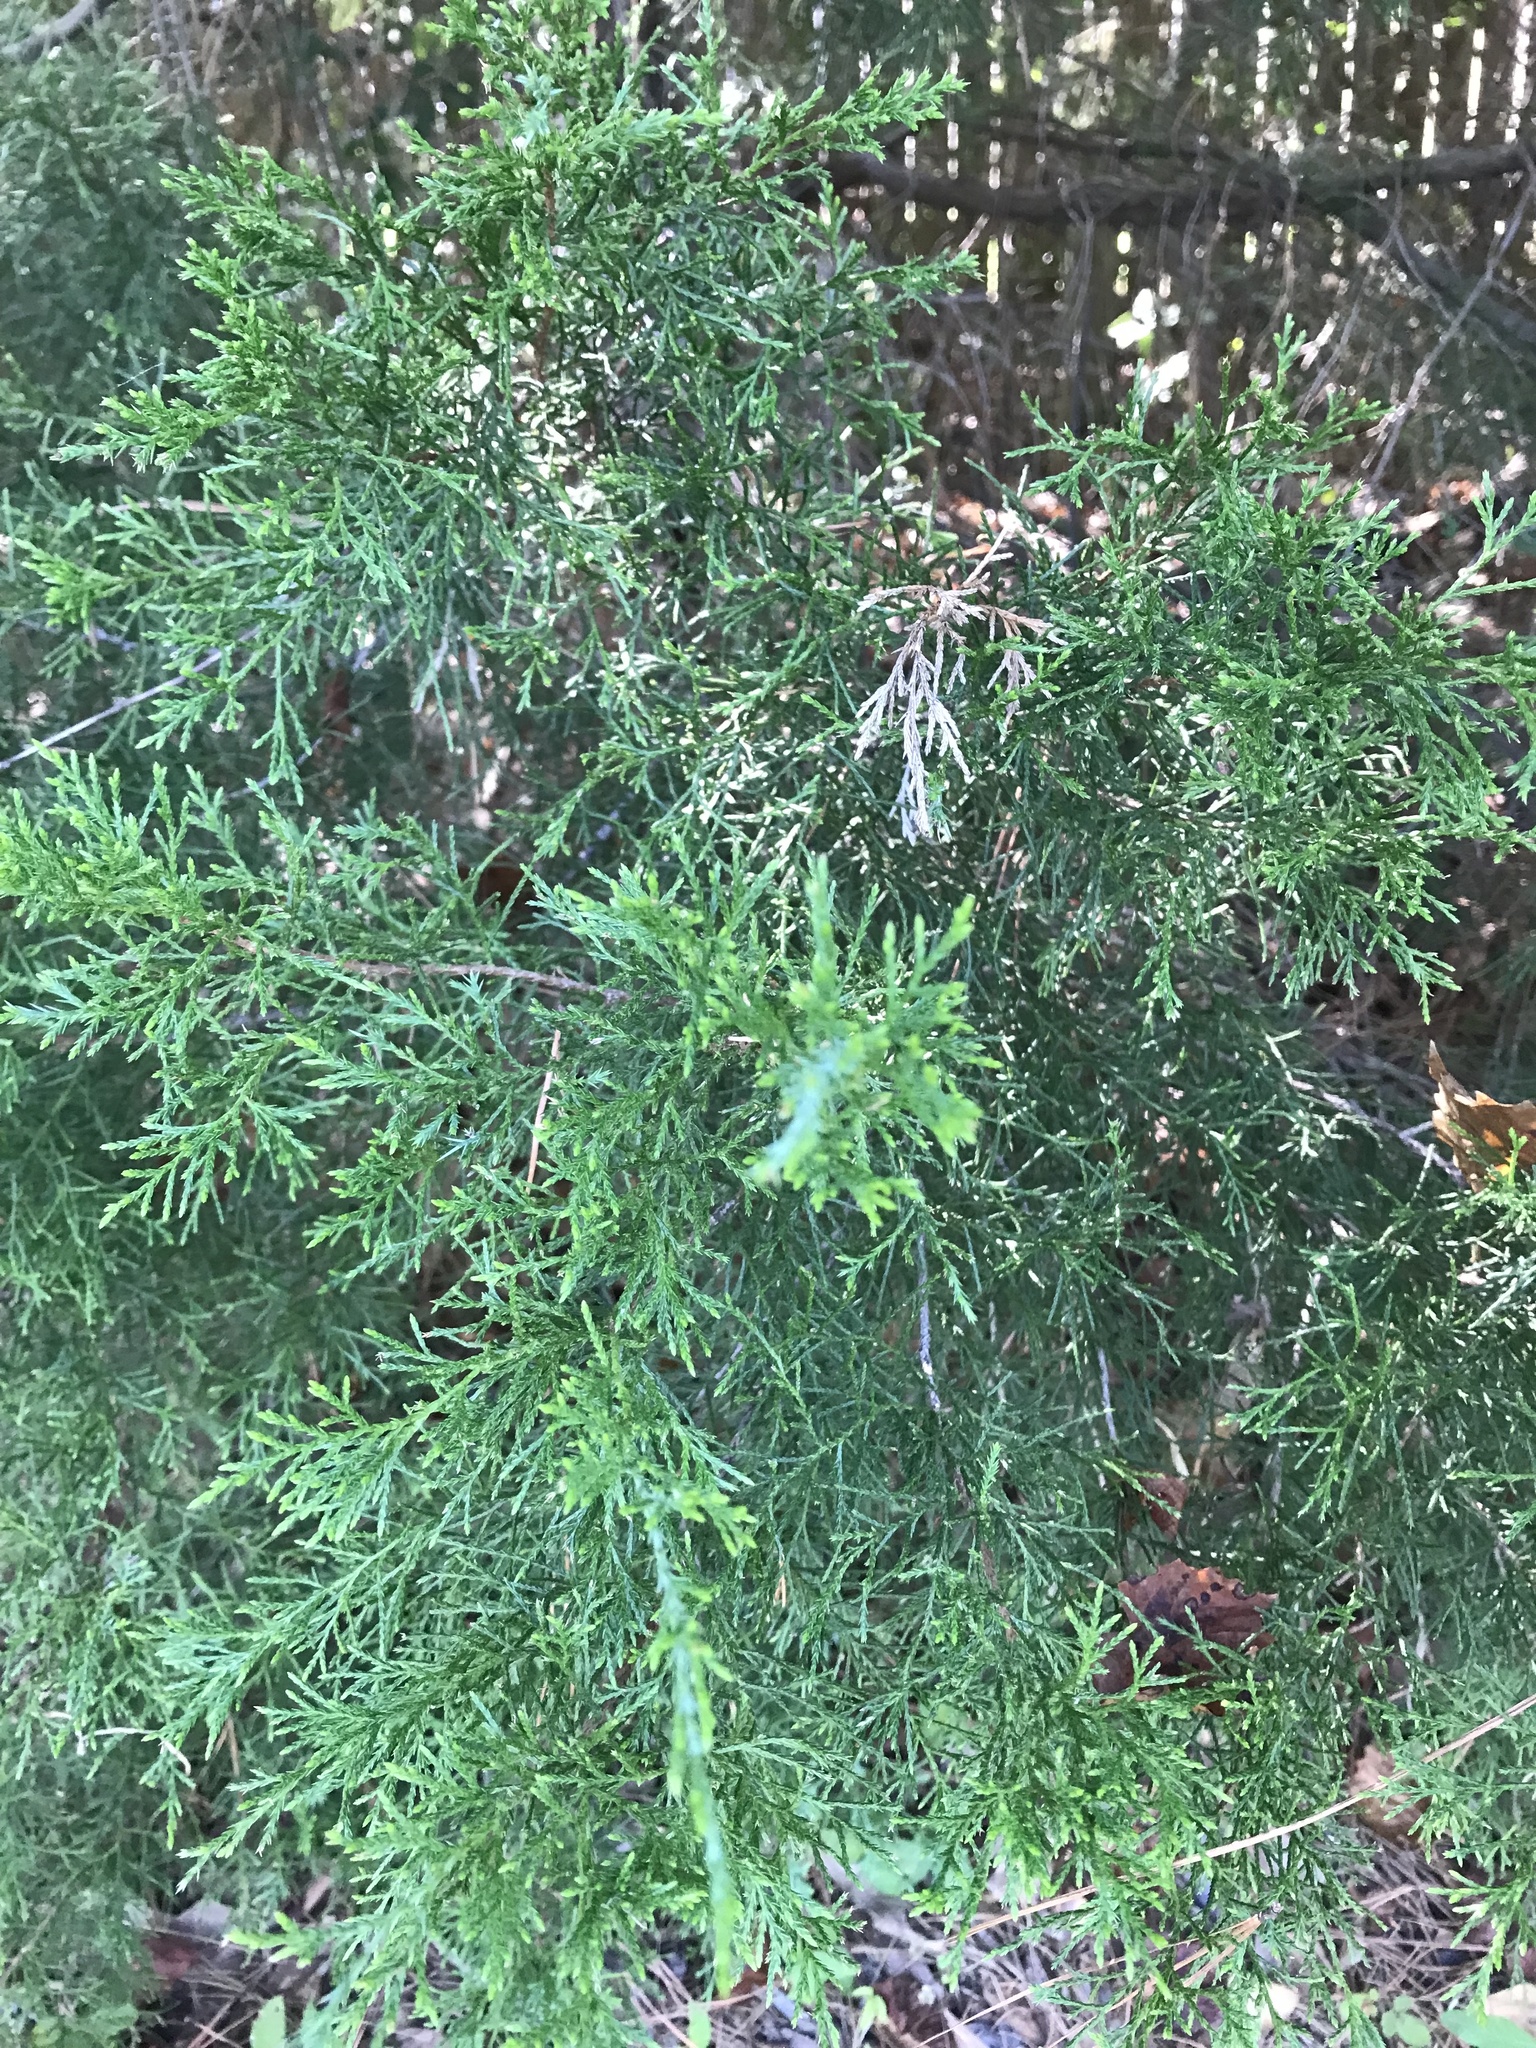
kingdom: Plantae
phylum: Tracheophyta
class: Pinopsida
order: Pinales
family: Cupressaceae
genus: Juniperus
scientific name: Juniperus virginiana
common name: Red juniper
